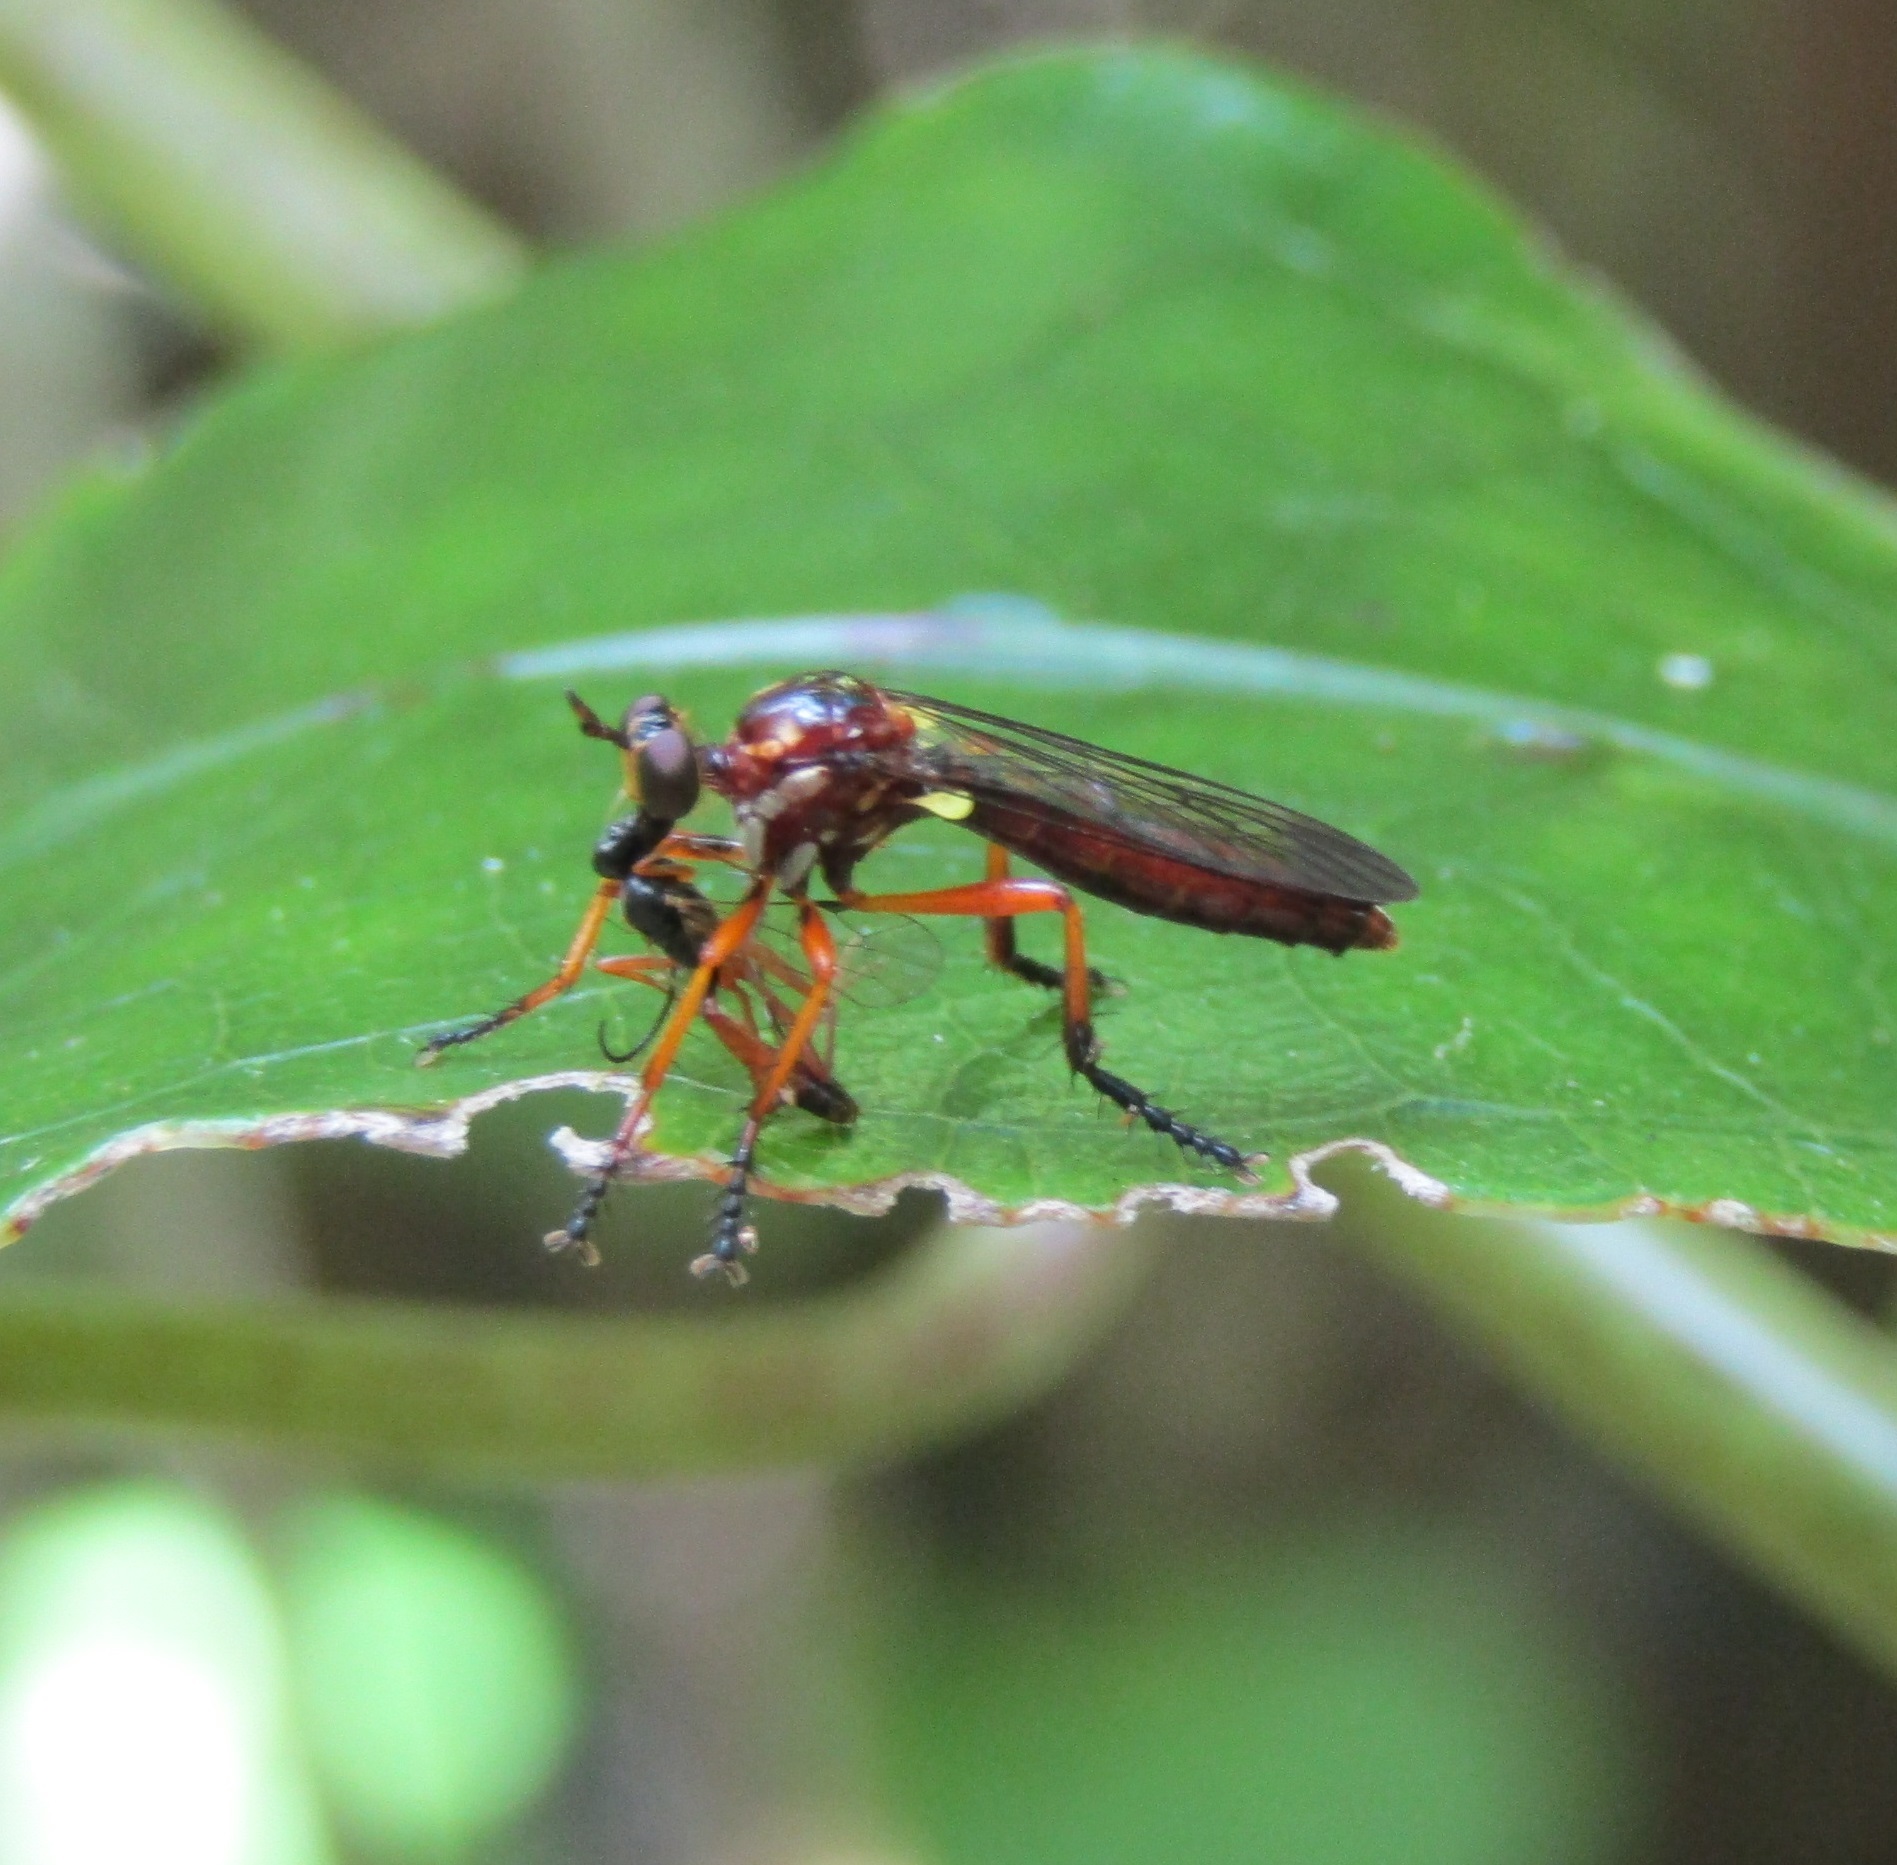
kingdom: Animalia
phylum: Arthropoda
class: Insecta
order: Diptera
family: Asilidae
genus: Saropogon
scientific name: Saropogon antipodus
